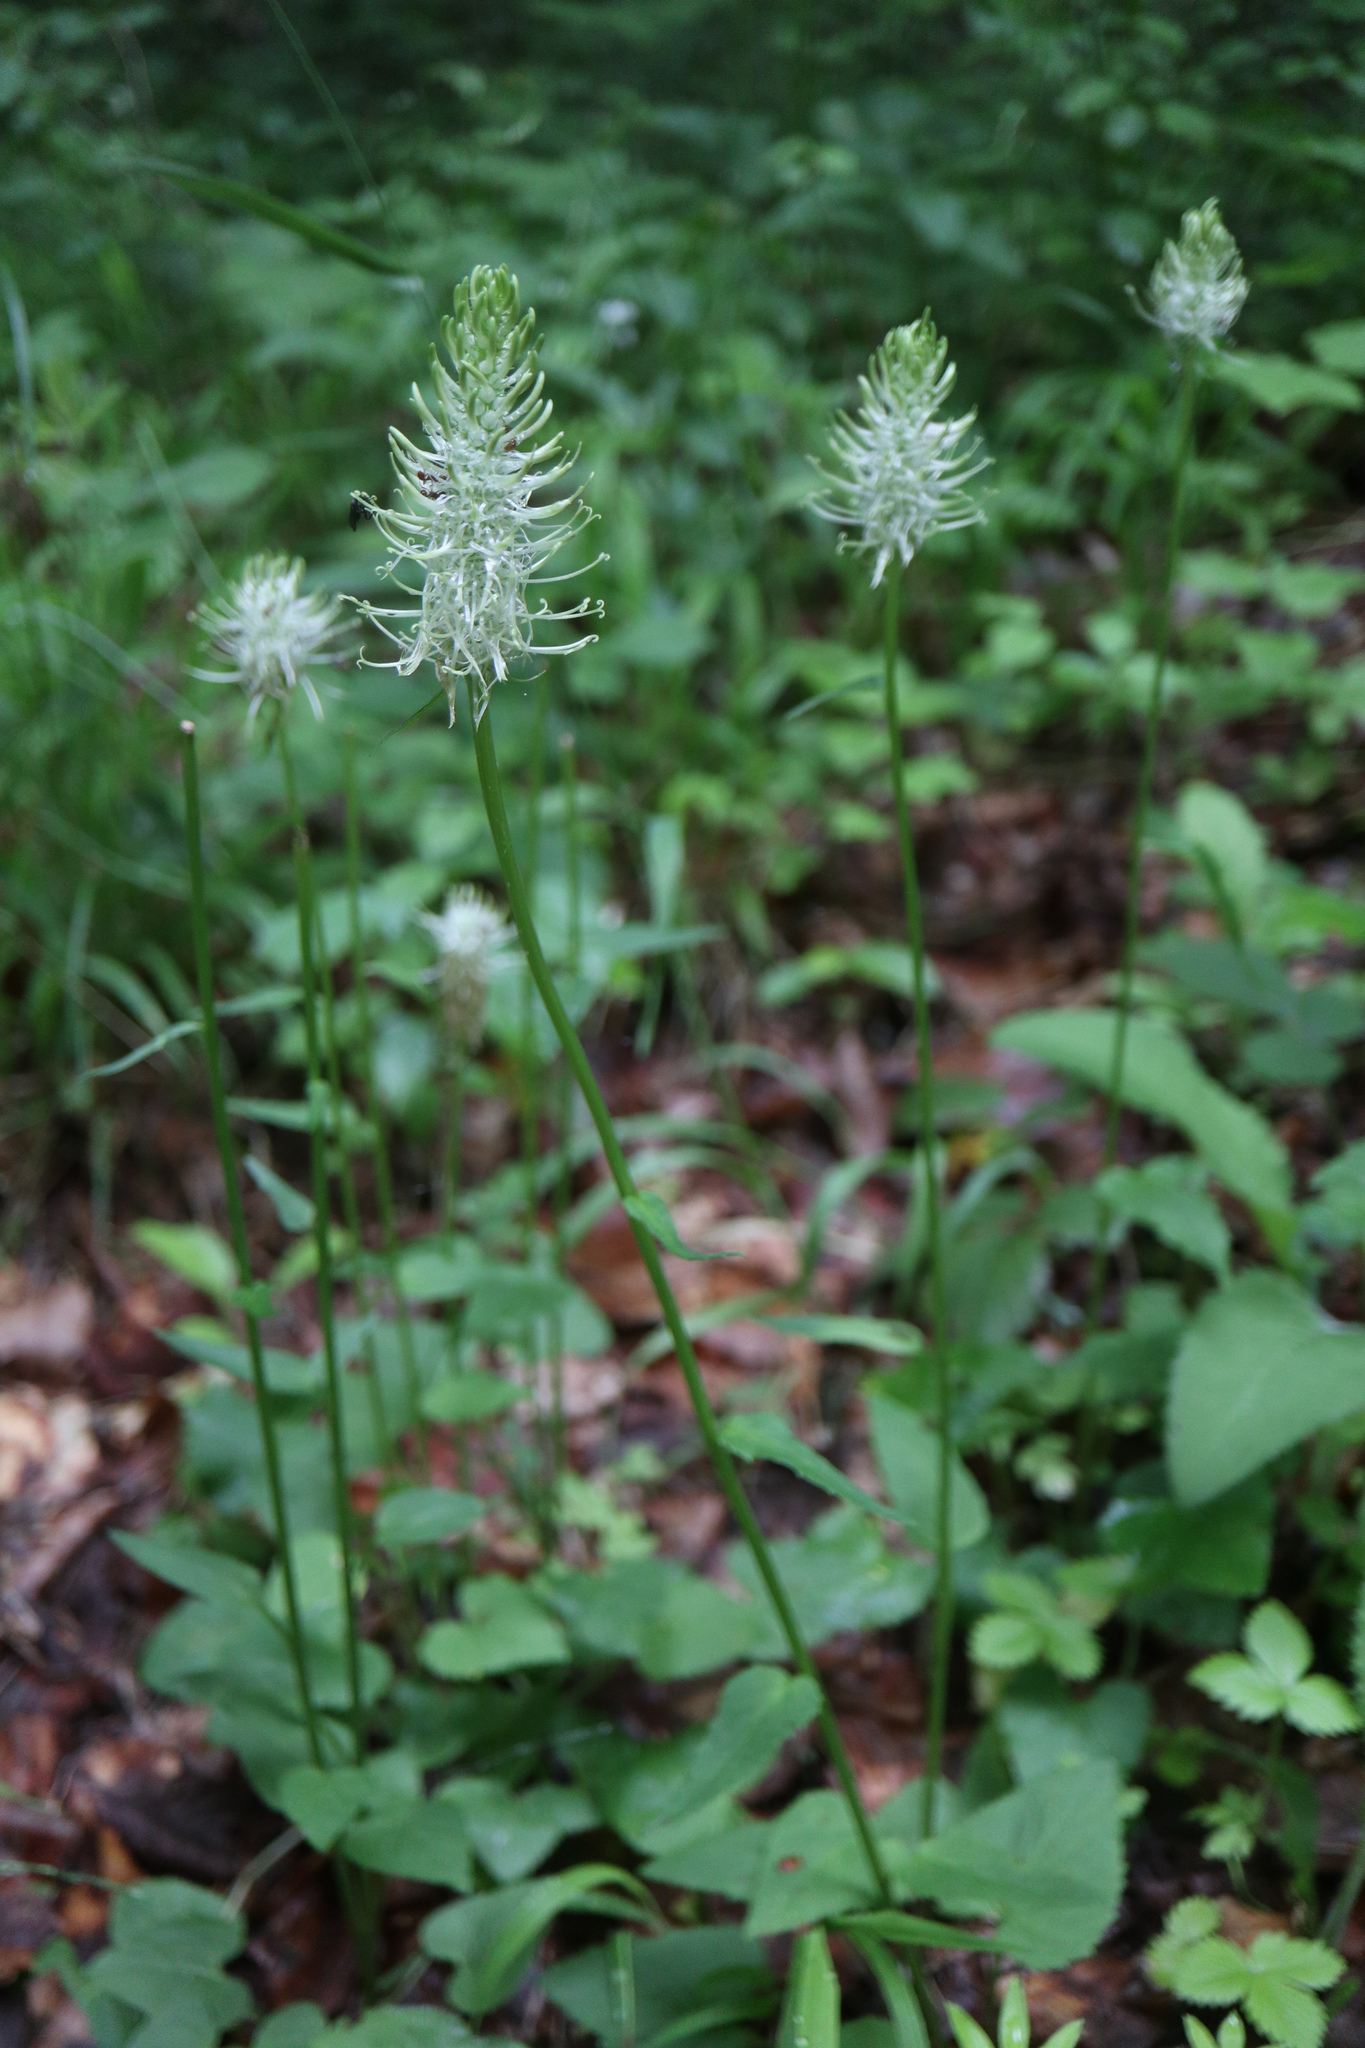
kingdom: Plantae
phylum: Tracheophyta
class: Magnoliopsida
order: Asterales
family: Campanulaceae
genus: Phyteuma
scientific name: Phyteuma spicatum
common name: Spiked rampion
